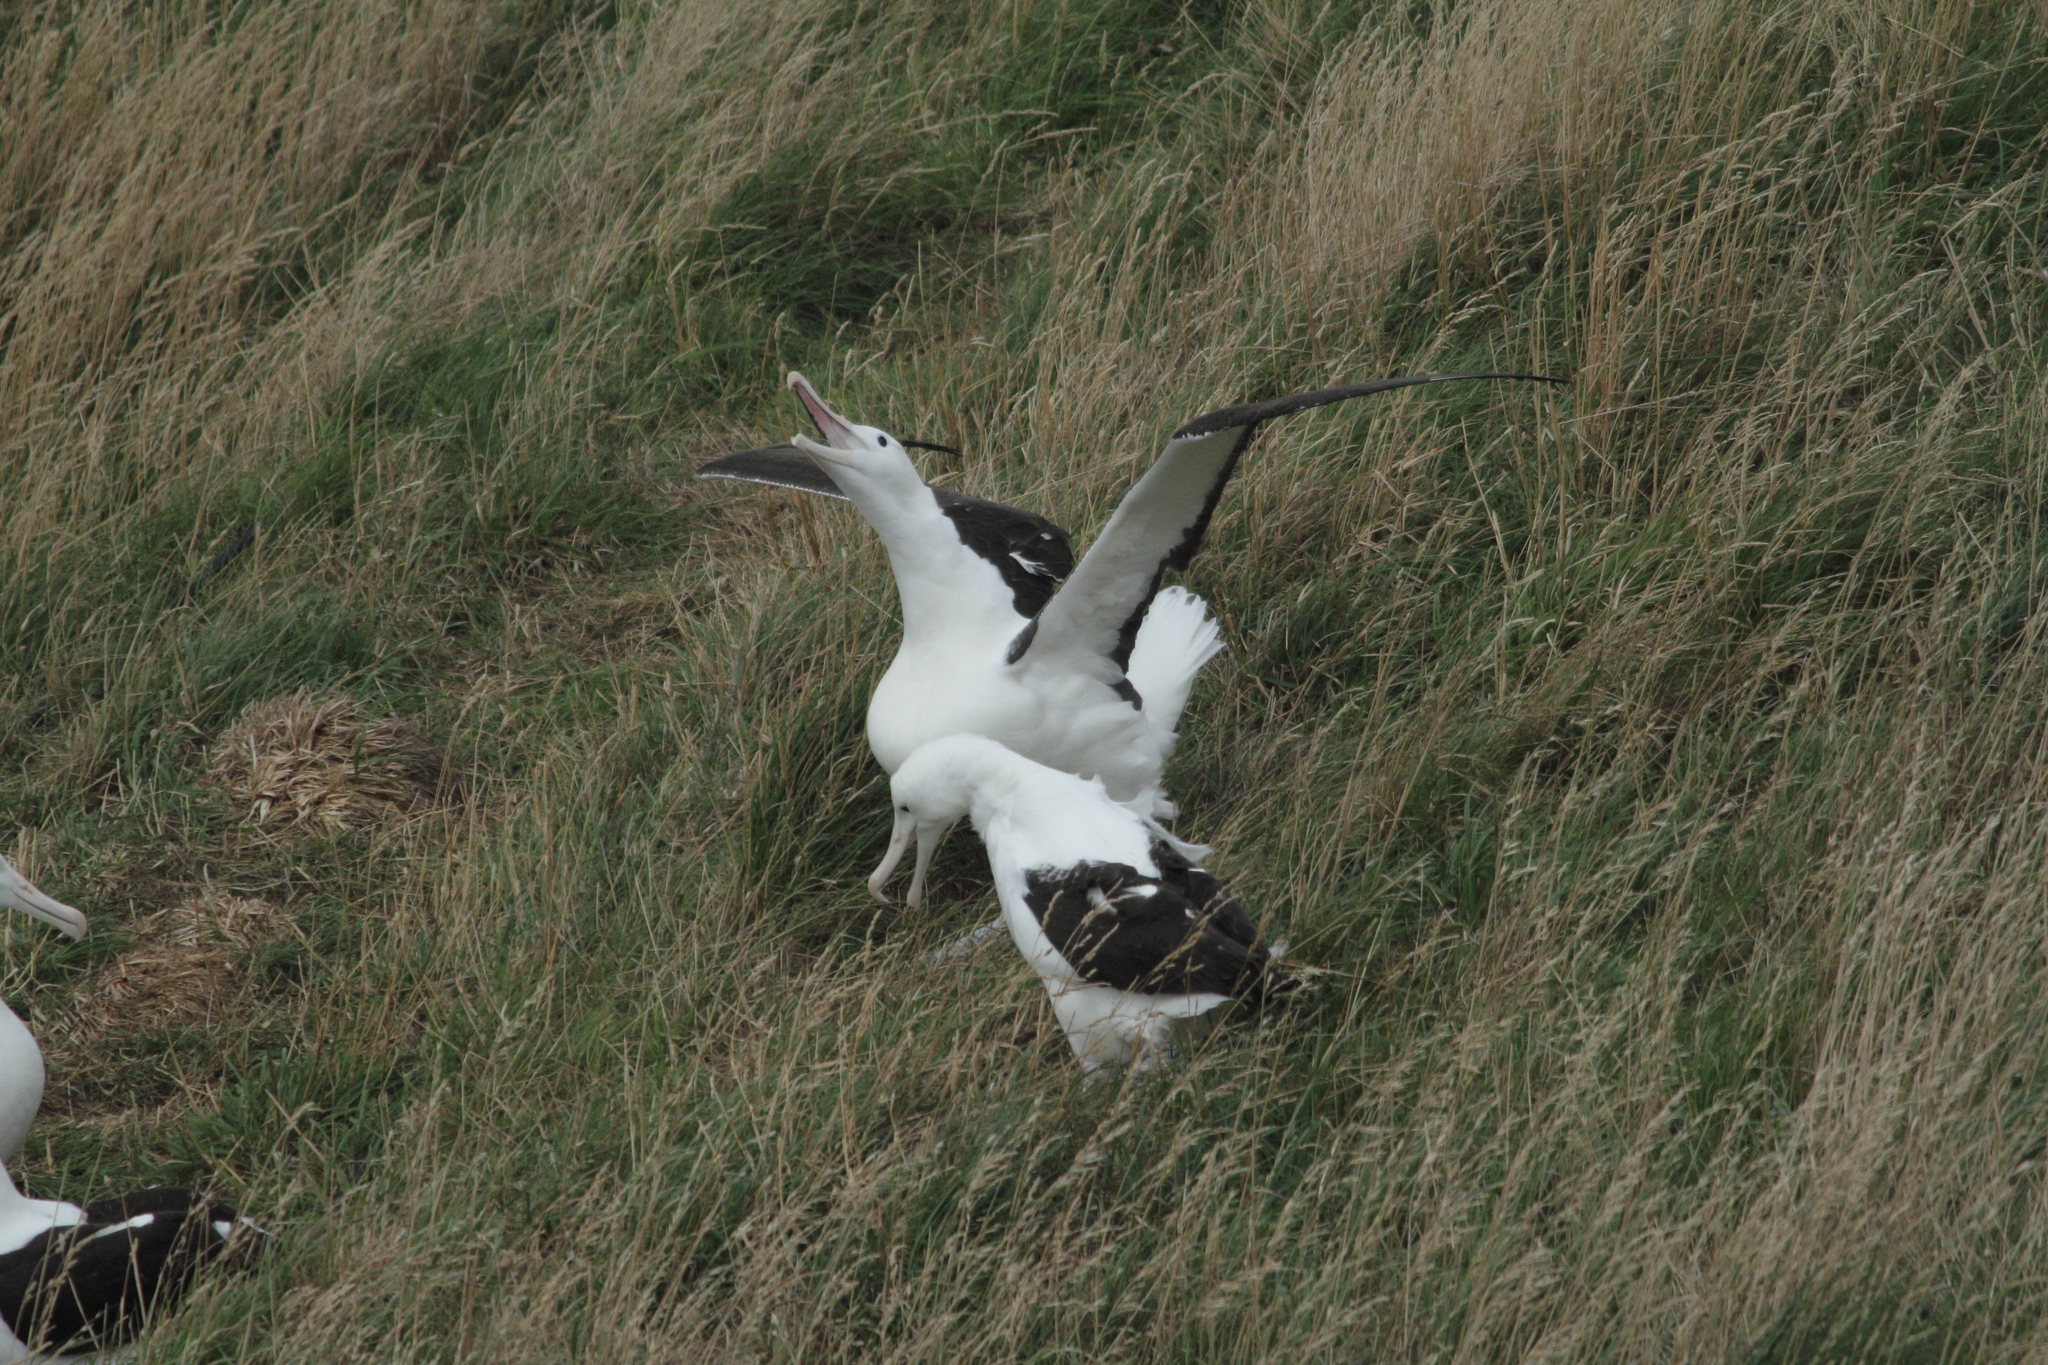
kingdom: Animalia
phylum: Chordata
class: Aves
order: Procellariiformes
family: Diomedeidae
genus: Diomedea
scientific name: Diomedea sanfordi
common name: Northern royal albatross
